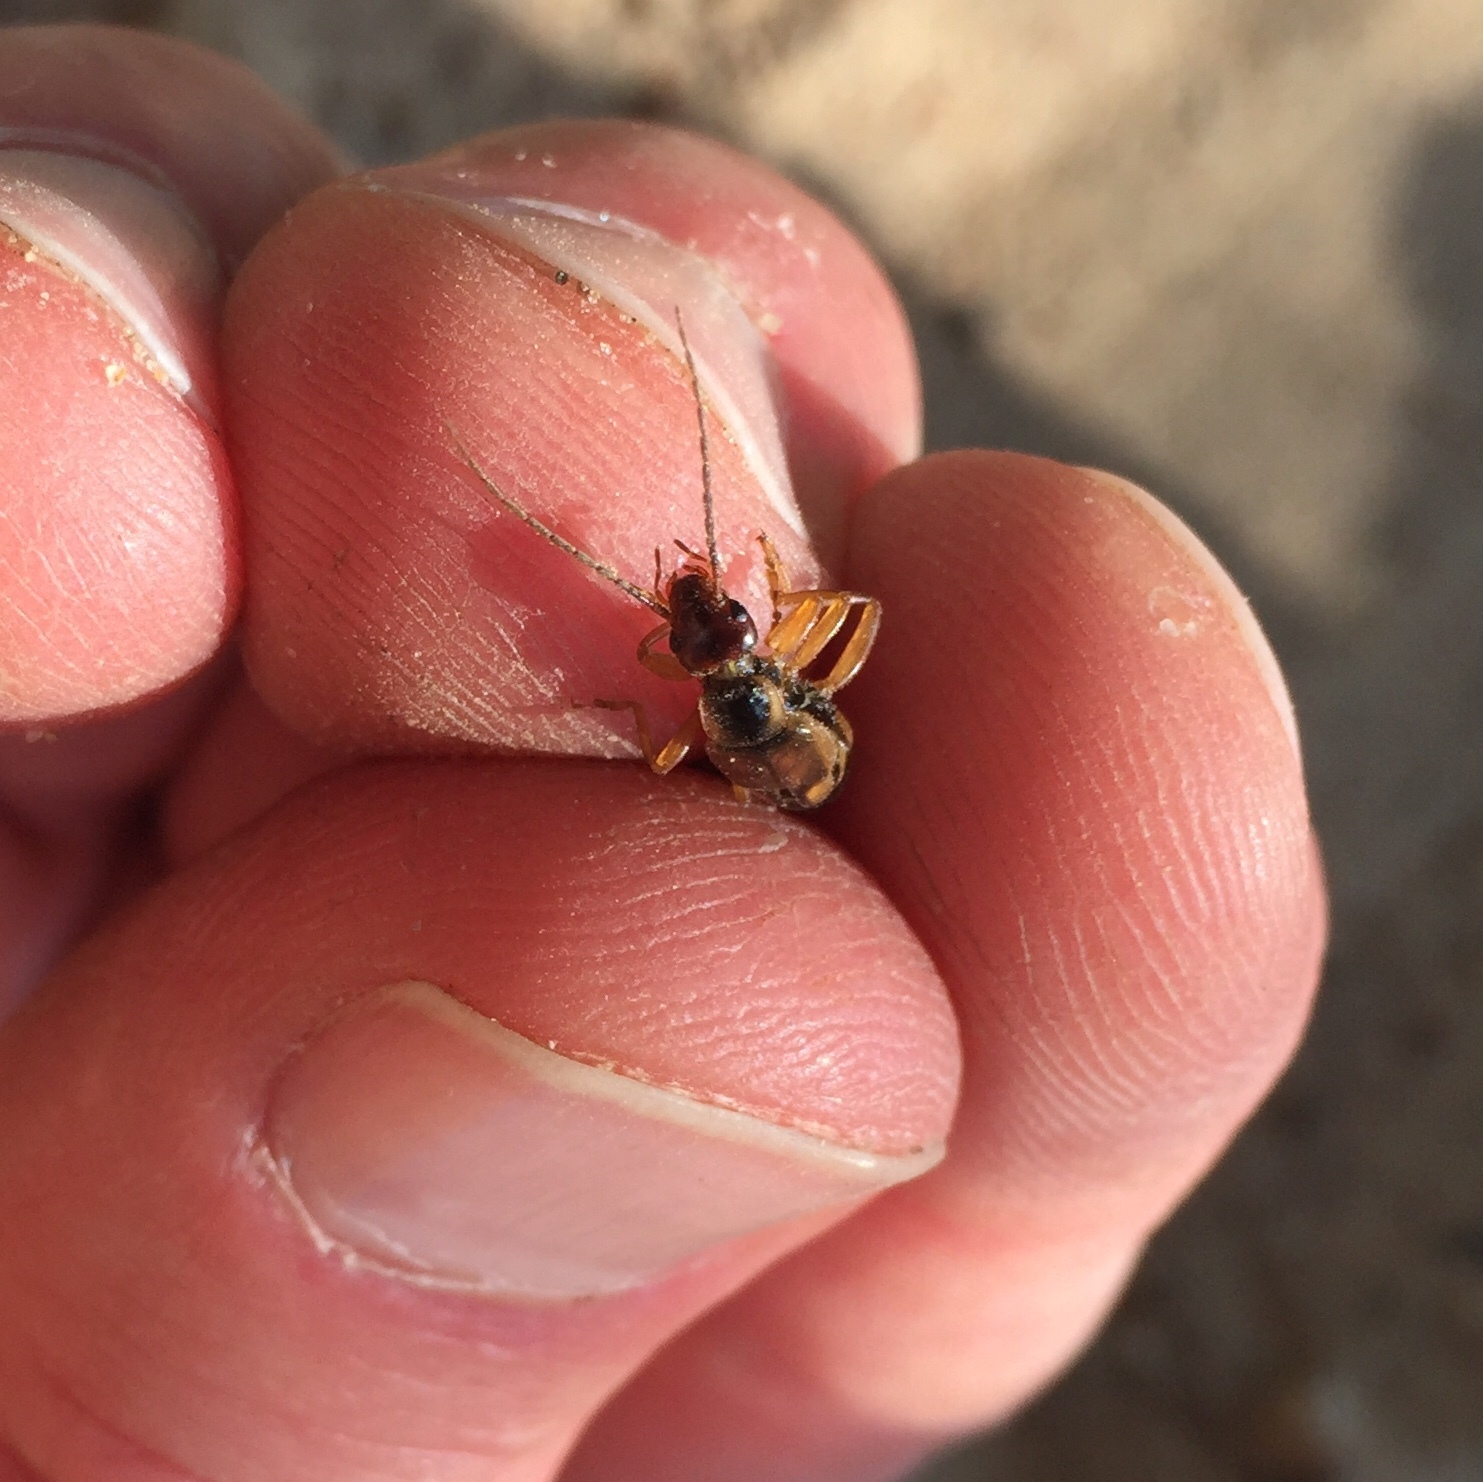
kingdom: Animalia
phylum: Arthropoda
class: Insecta
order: Dermaptera
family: Forficulidae
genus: Forficula
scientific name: Forficula
